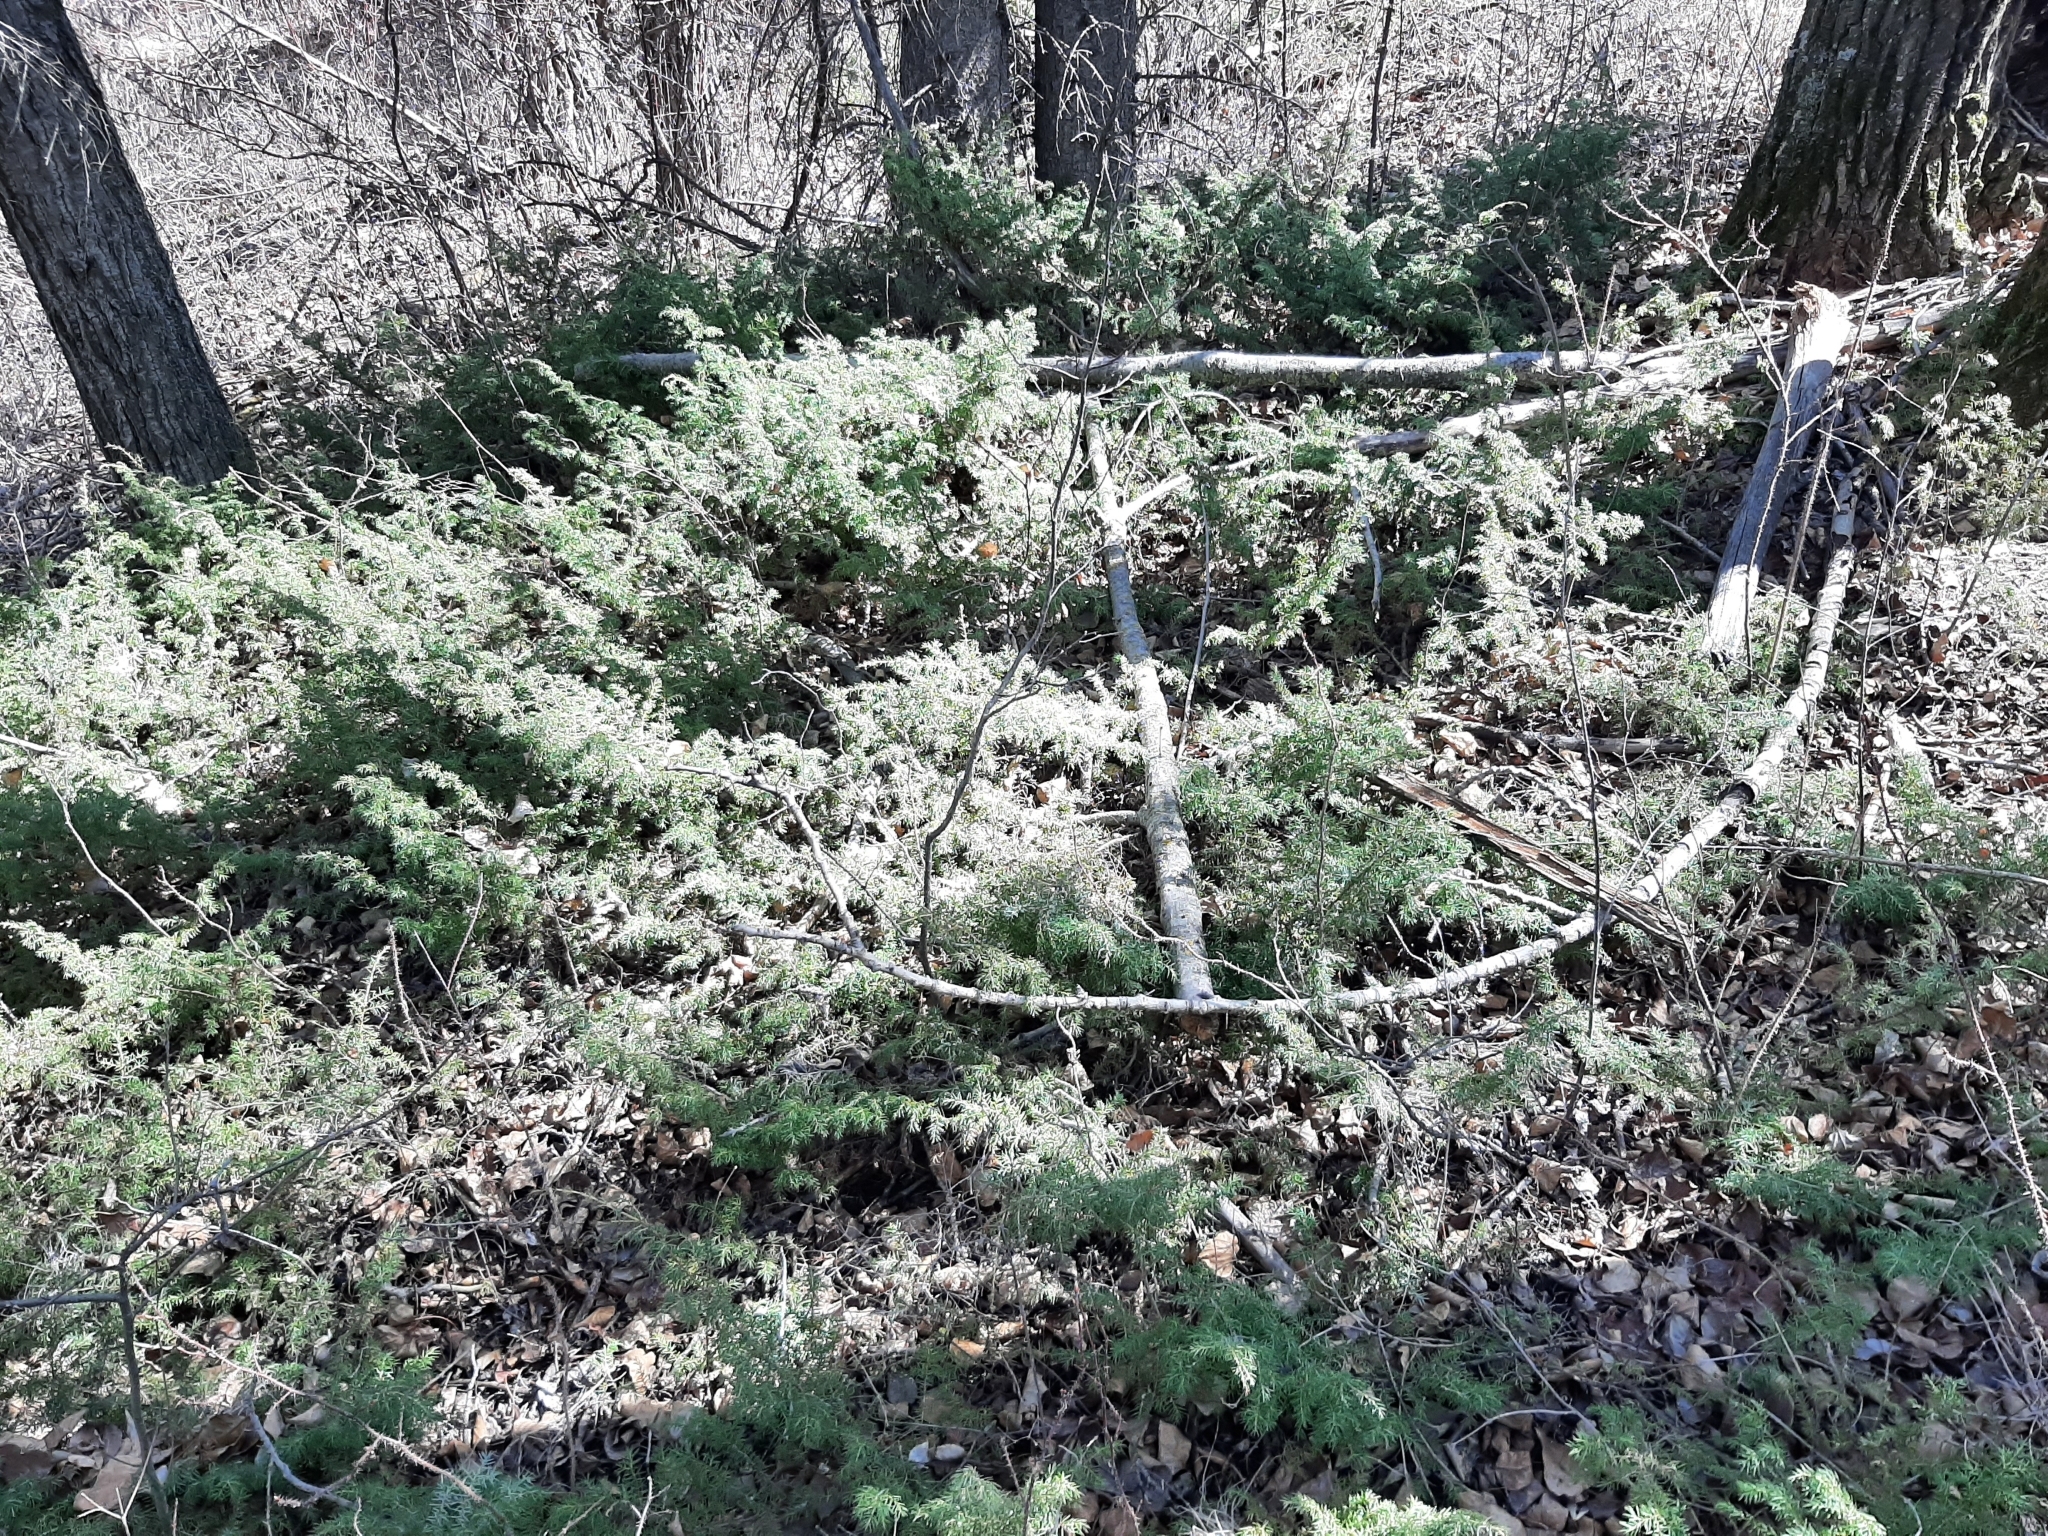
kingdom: Plantae
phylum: Tracheophyta
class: Pinopsida
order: Pinales
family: Cupressaceae
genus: Juniperus
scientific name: Juniperus communis
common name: Common juniper
